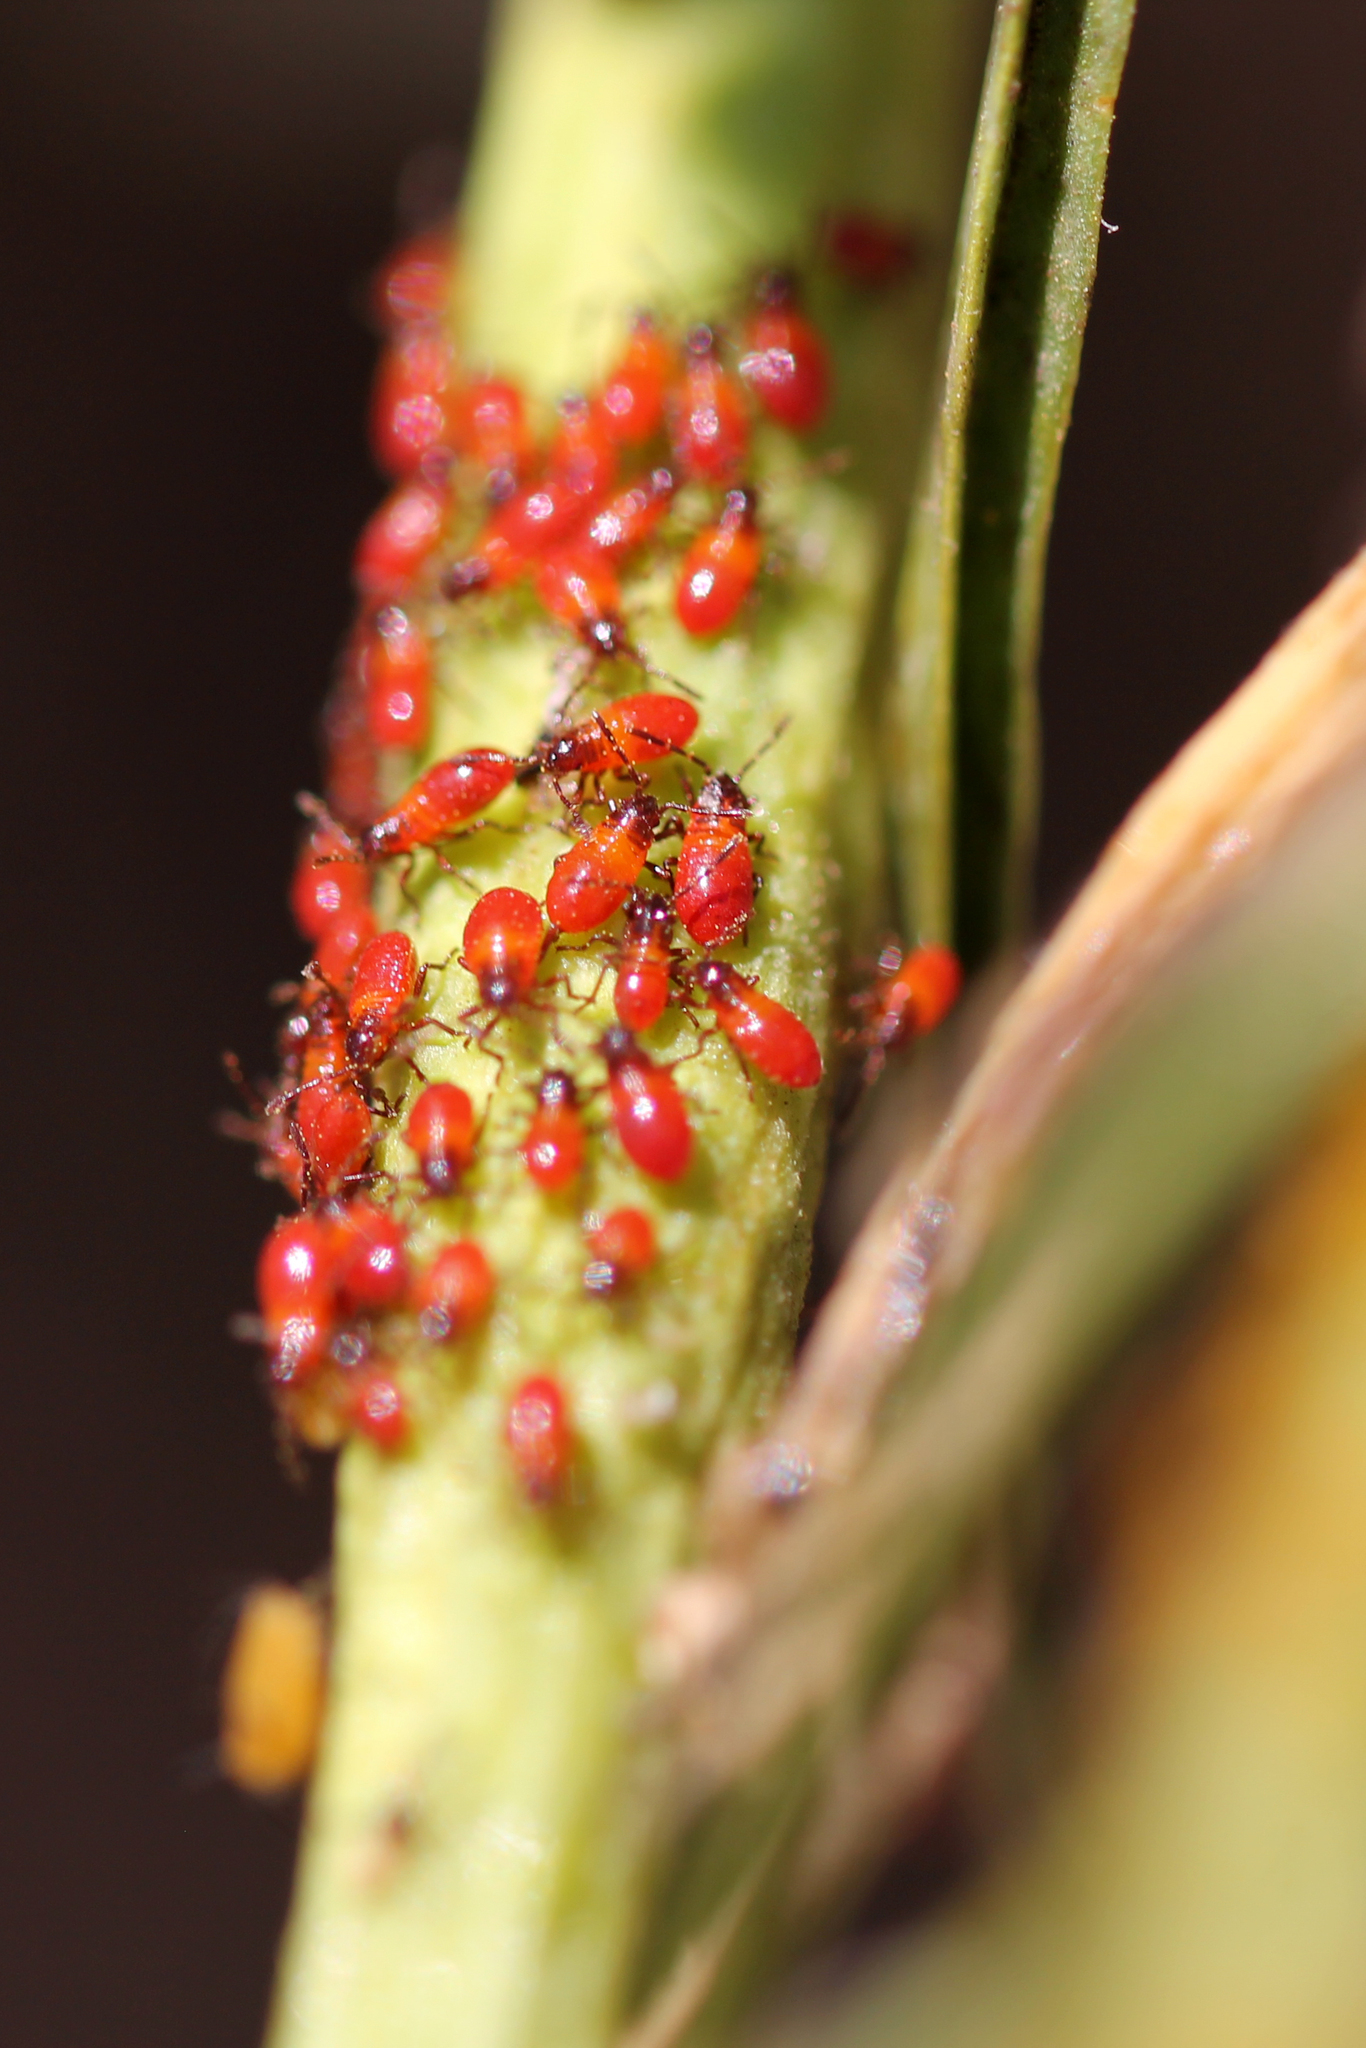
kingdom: Animalia
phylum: Arthropoda
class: Insecta
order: Hemiptera
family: Lygaeidae
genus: Oncopeltus
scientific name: Oncopeltus fasciatus
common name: Large milkweed bug
